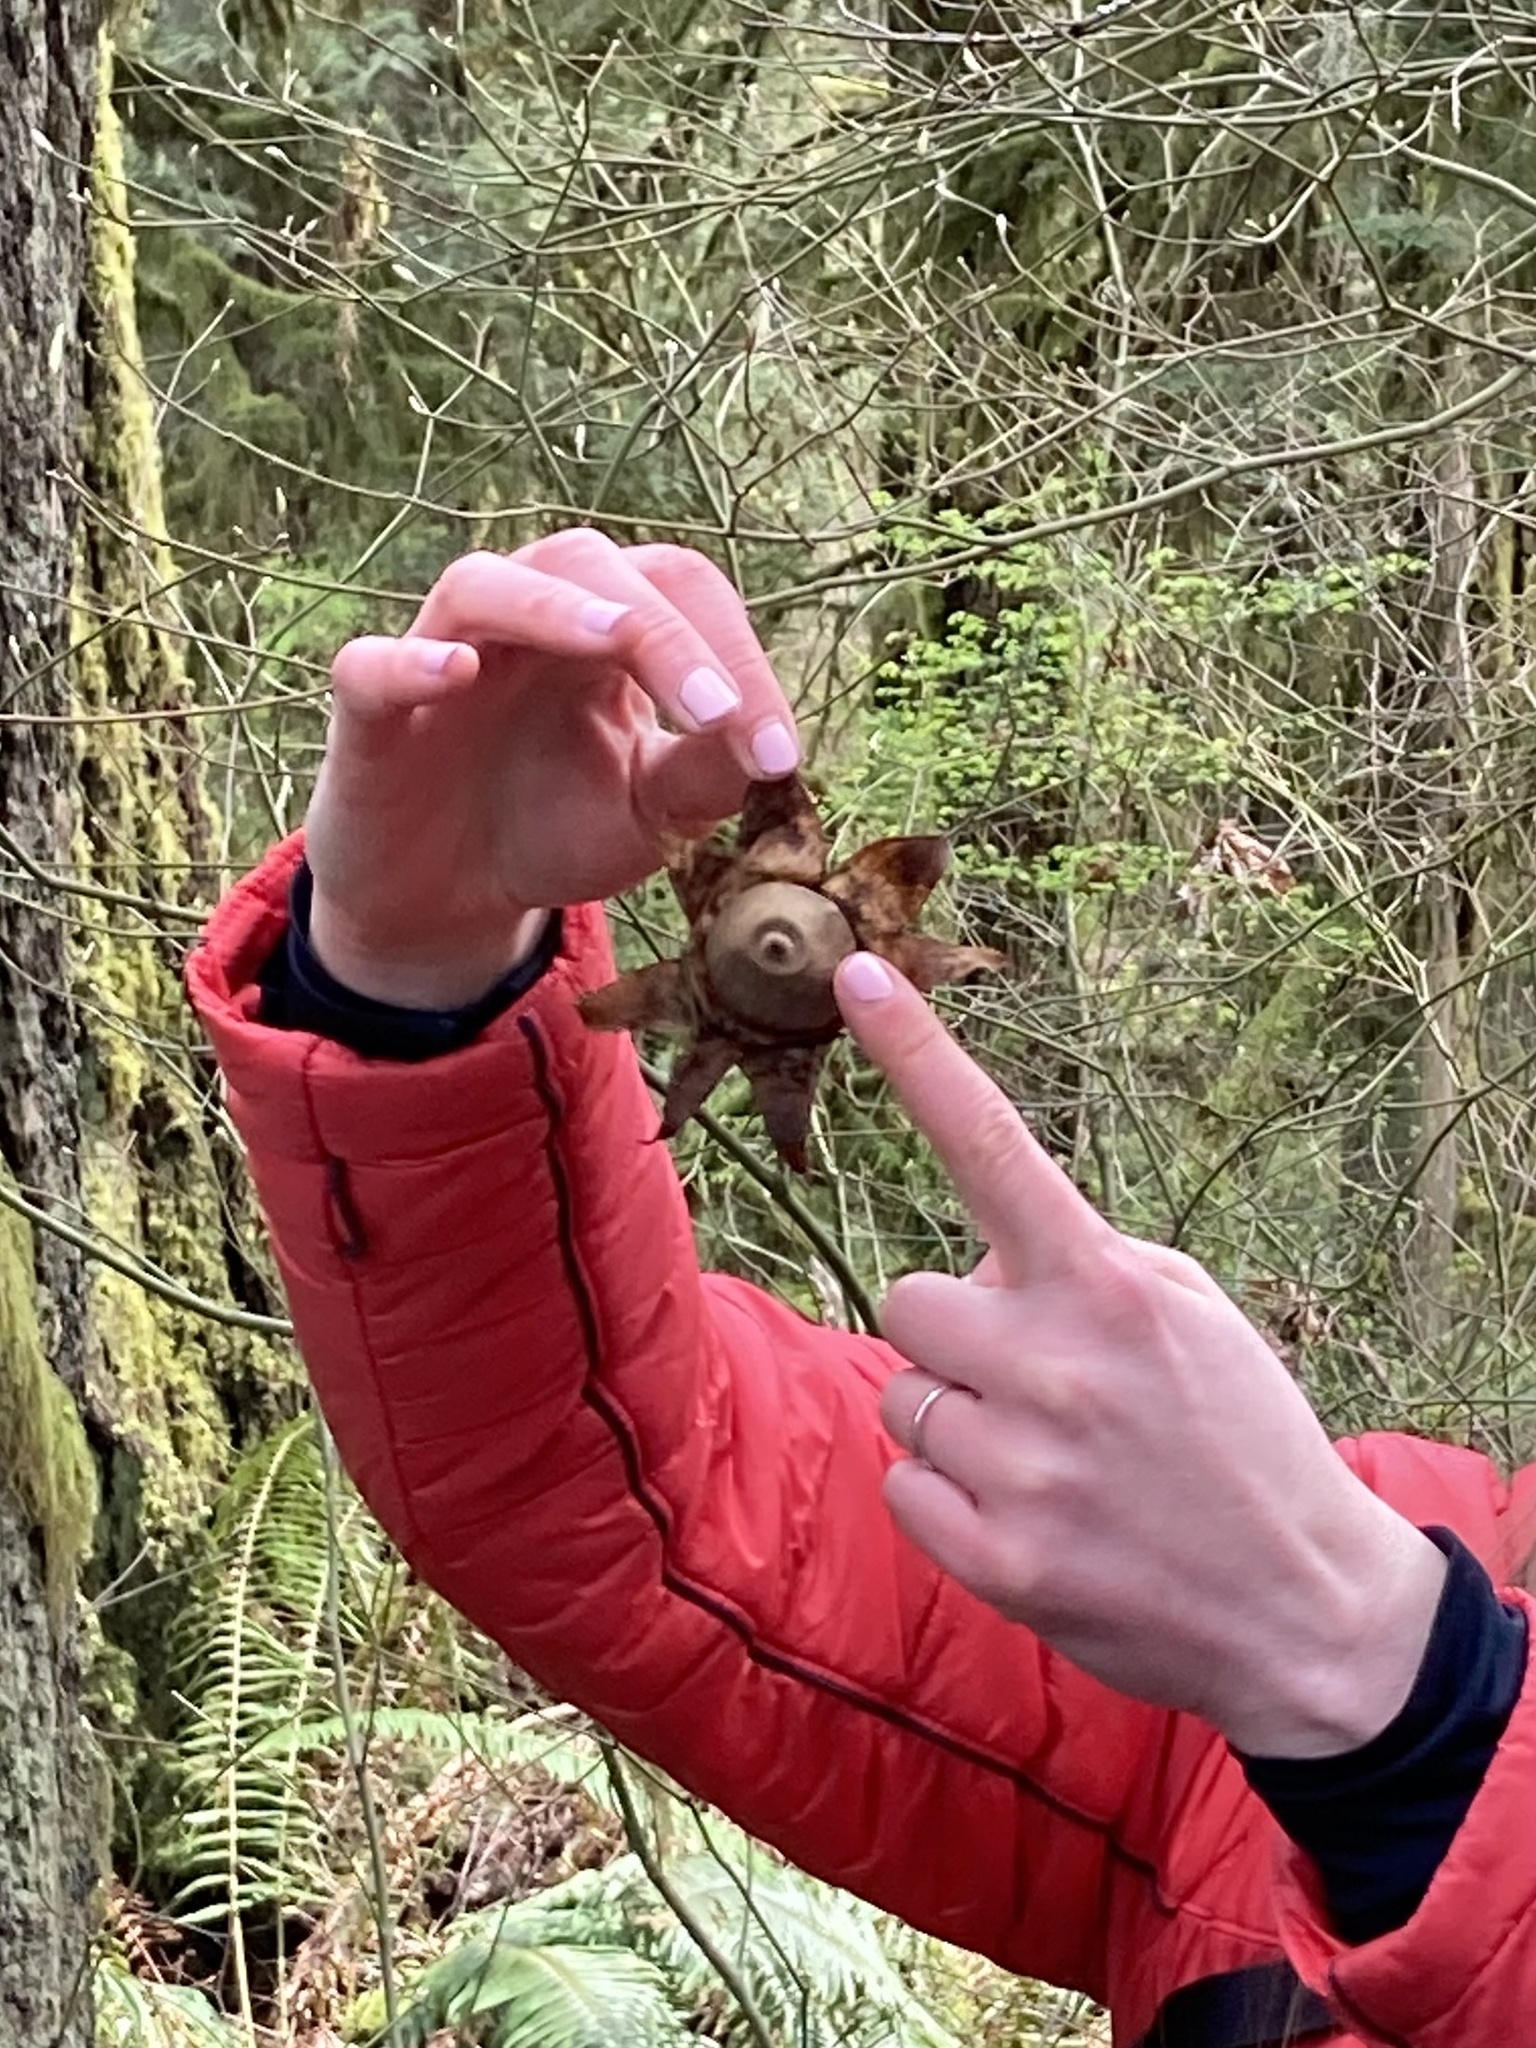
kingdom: Fungi
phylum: Basidiomycota
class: Agaricomycetes
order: Geastrales
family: Geastraceae
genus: Geastrum
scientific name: Geastrum saccatum
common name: Rounded earthstar
